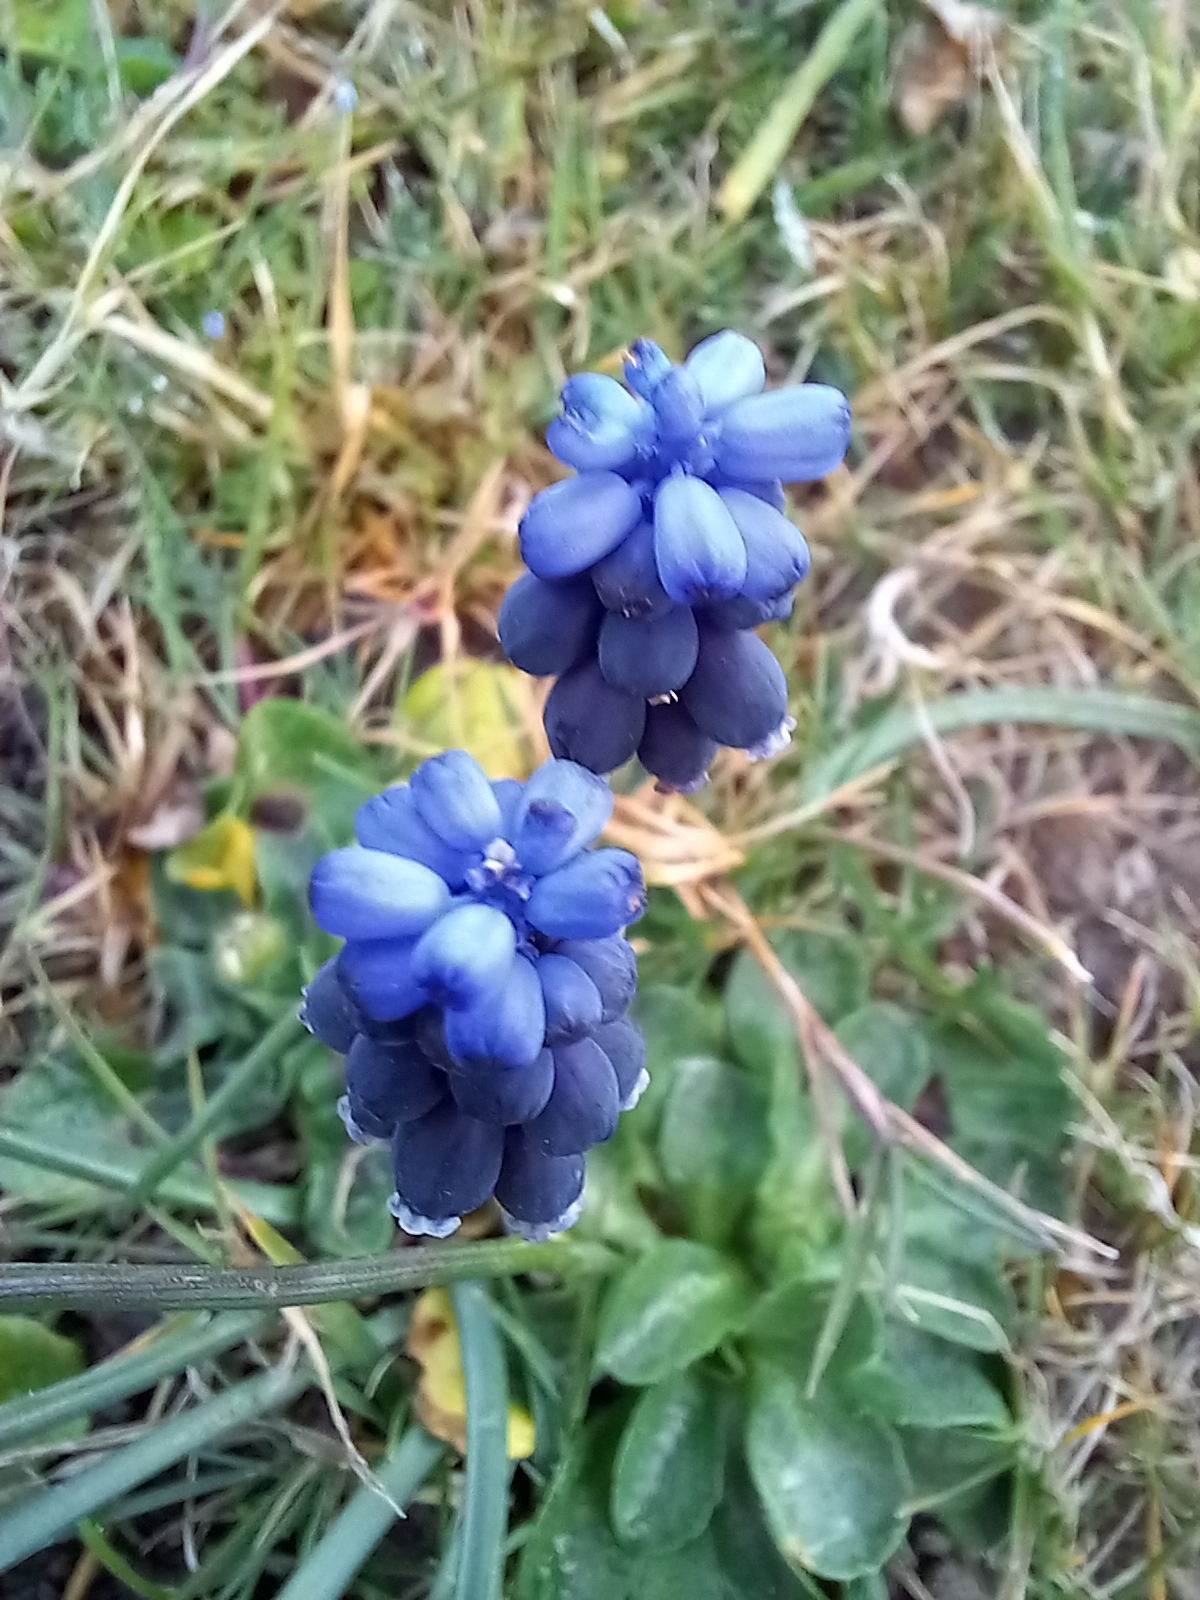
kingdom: Plantae
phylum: Tracheophyta
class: Liliopsida
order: Asparagales
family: Asparagaceae
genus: Muscari
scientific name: Muscari neglectum
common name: Grape-hyacinth
